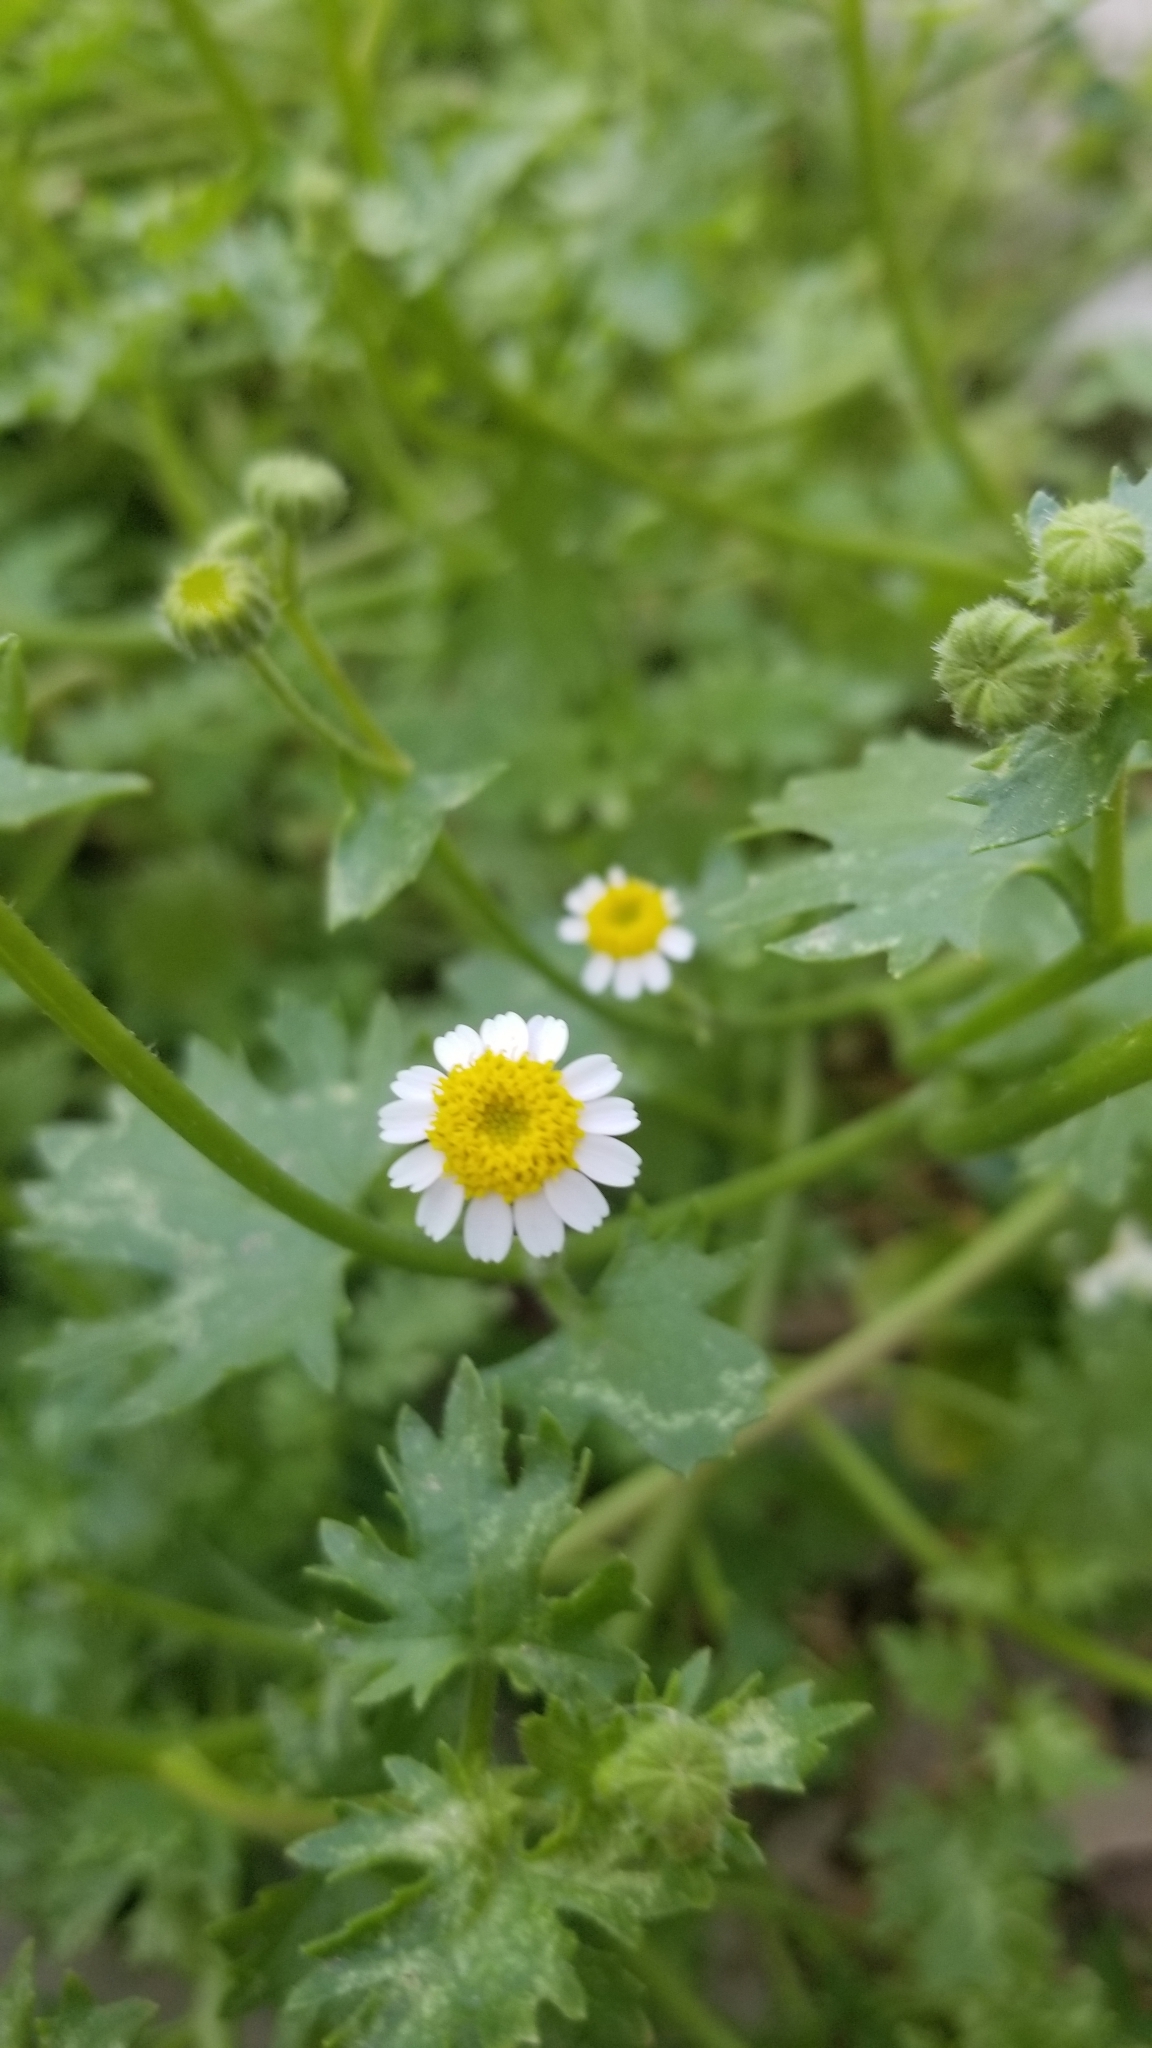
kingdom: Plantae
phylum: Tracheophyta
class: Magnoliopsida
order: Asterales
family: Asteraceae
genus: Laphamia
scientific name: Laphamia emoryi
